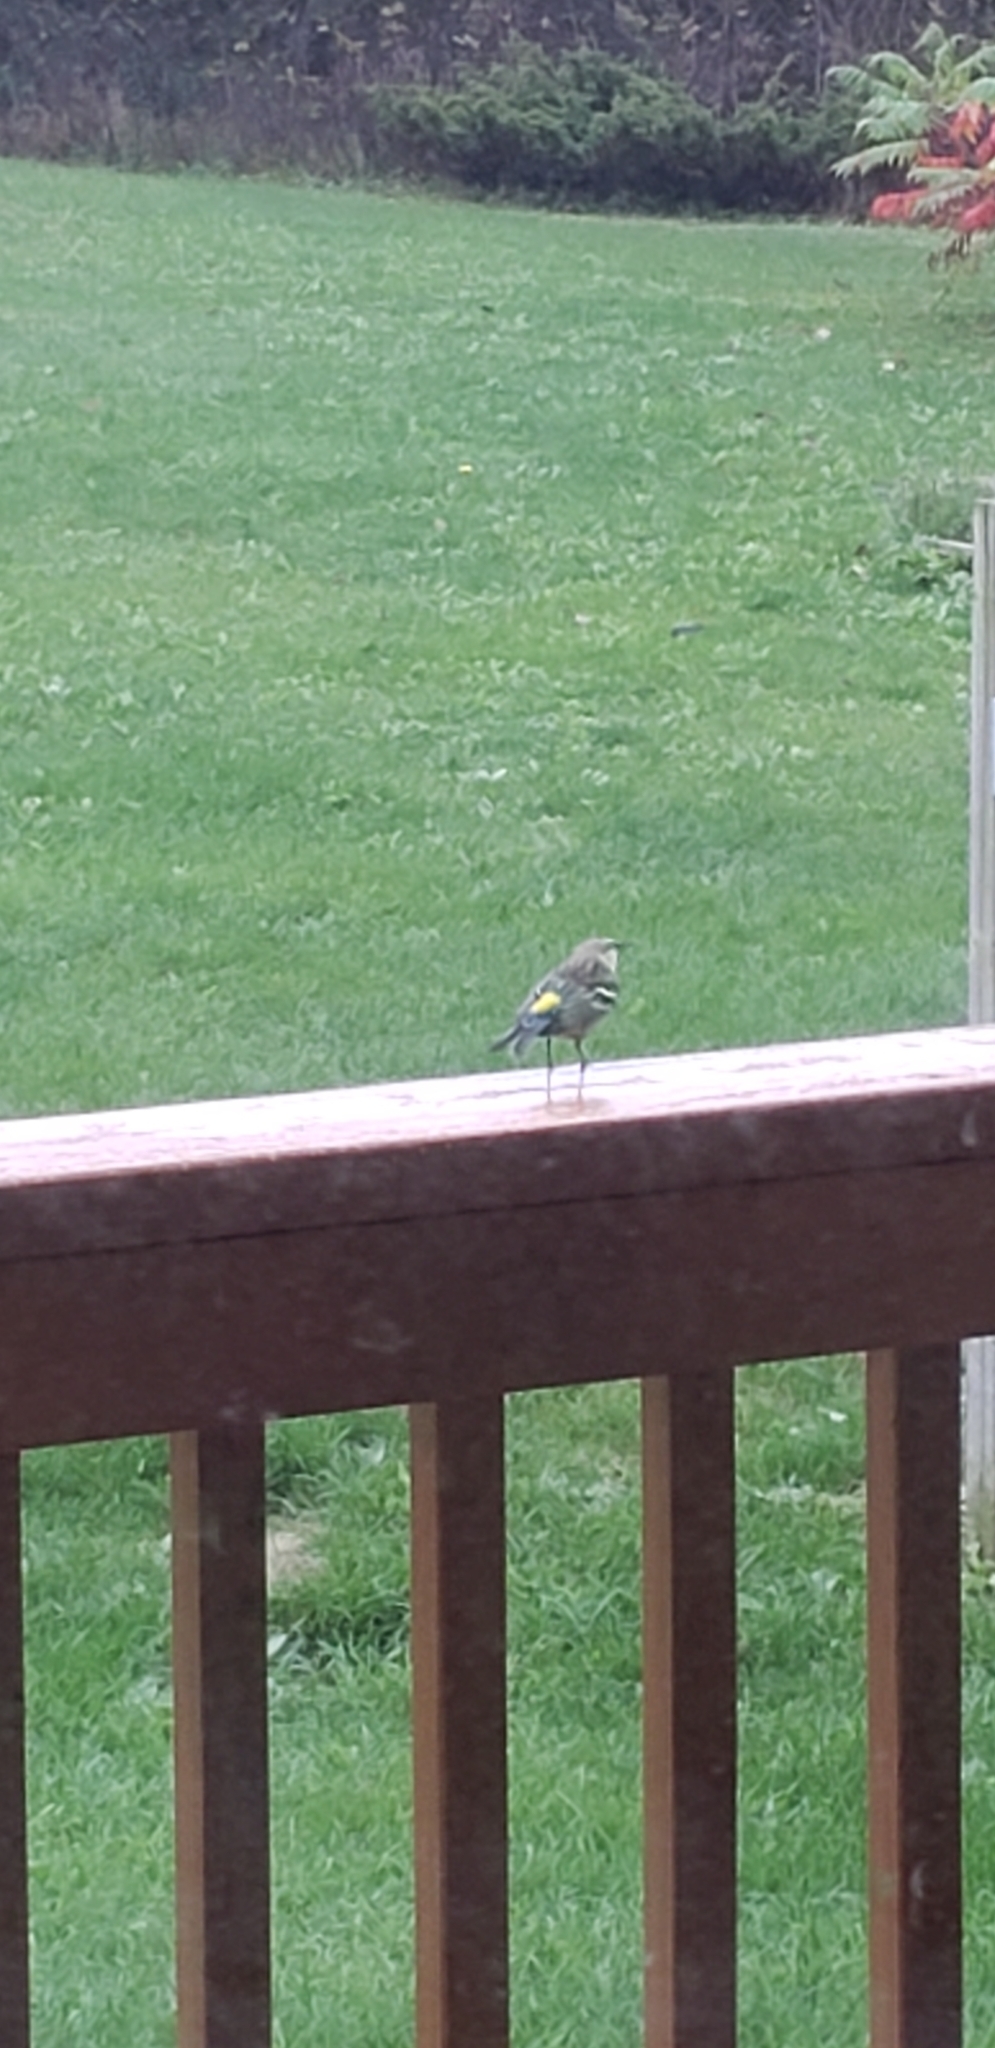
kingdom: Animalia
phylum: Chordata
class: Aves
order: Passeriformes
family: Parulidae
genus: Setophaga
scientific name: Setophaga coronata
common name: Myrtle warbler
